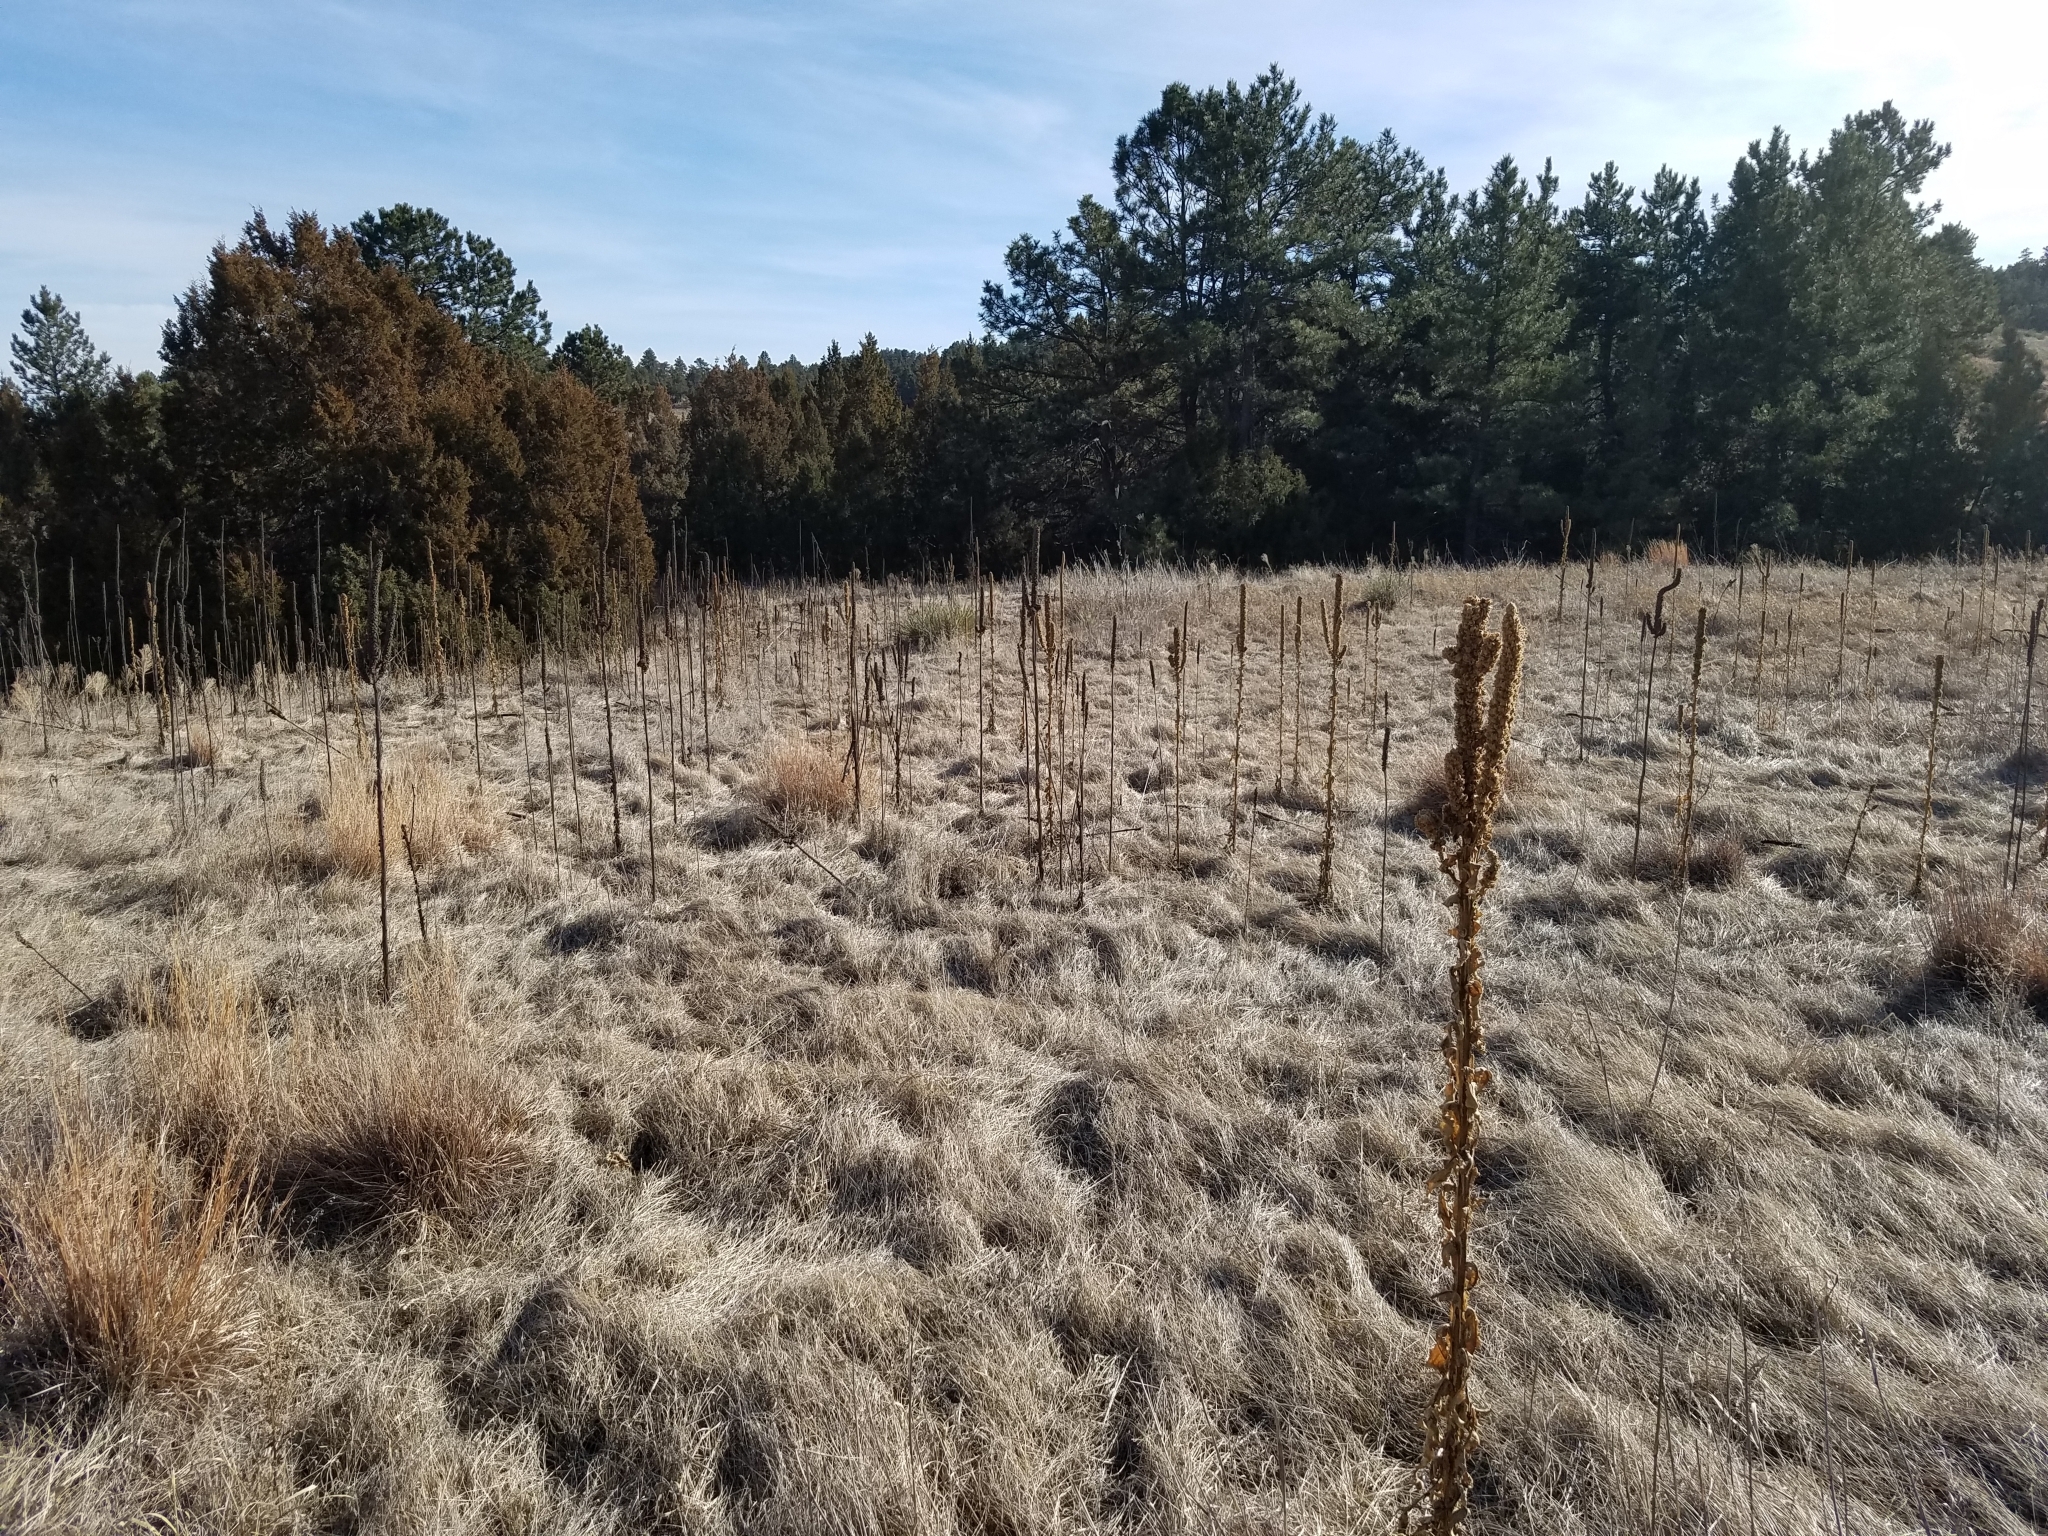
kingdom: Plantae
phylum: Tracheophyta
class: Magnoliopsida
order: Lamiales
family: Scrophulariaceae
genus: Verbascum
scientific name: Verbascum thapsus
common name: Common mullein
